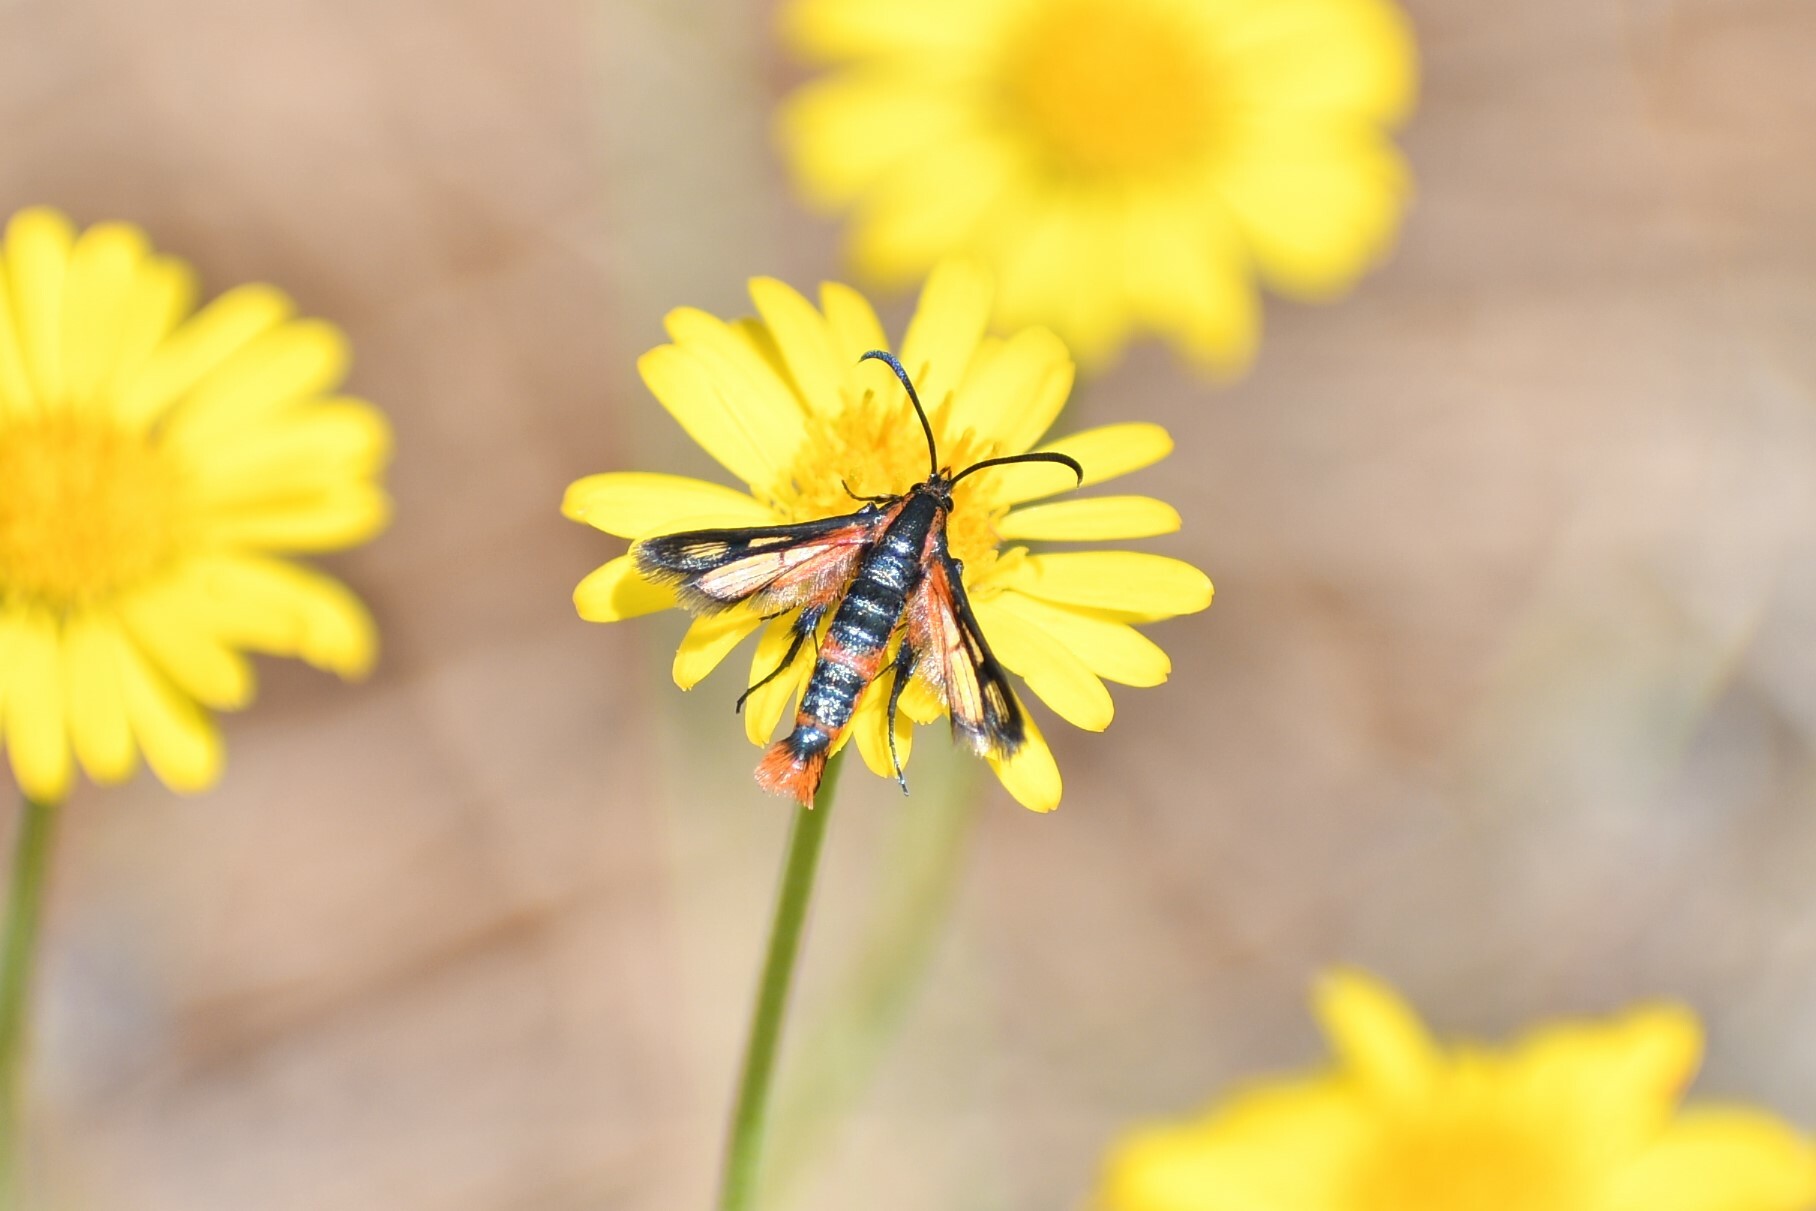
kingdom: Animalia
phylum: Arthropoda
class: Insecta
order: Lepidoptera
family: Sesiidae
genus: Synanthedon
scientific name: Synanthedon polygoni
